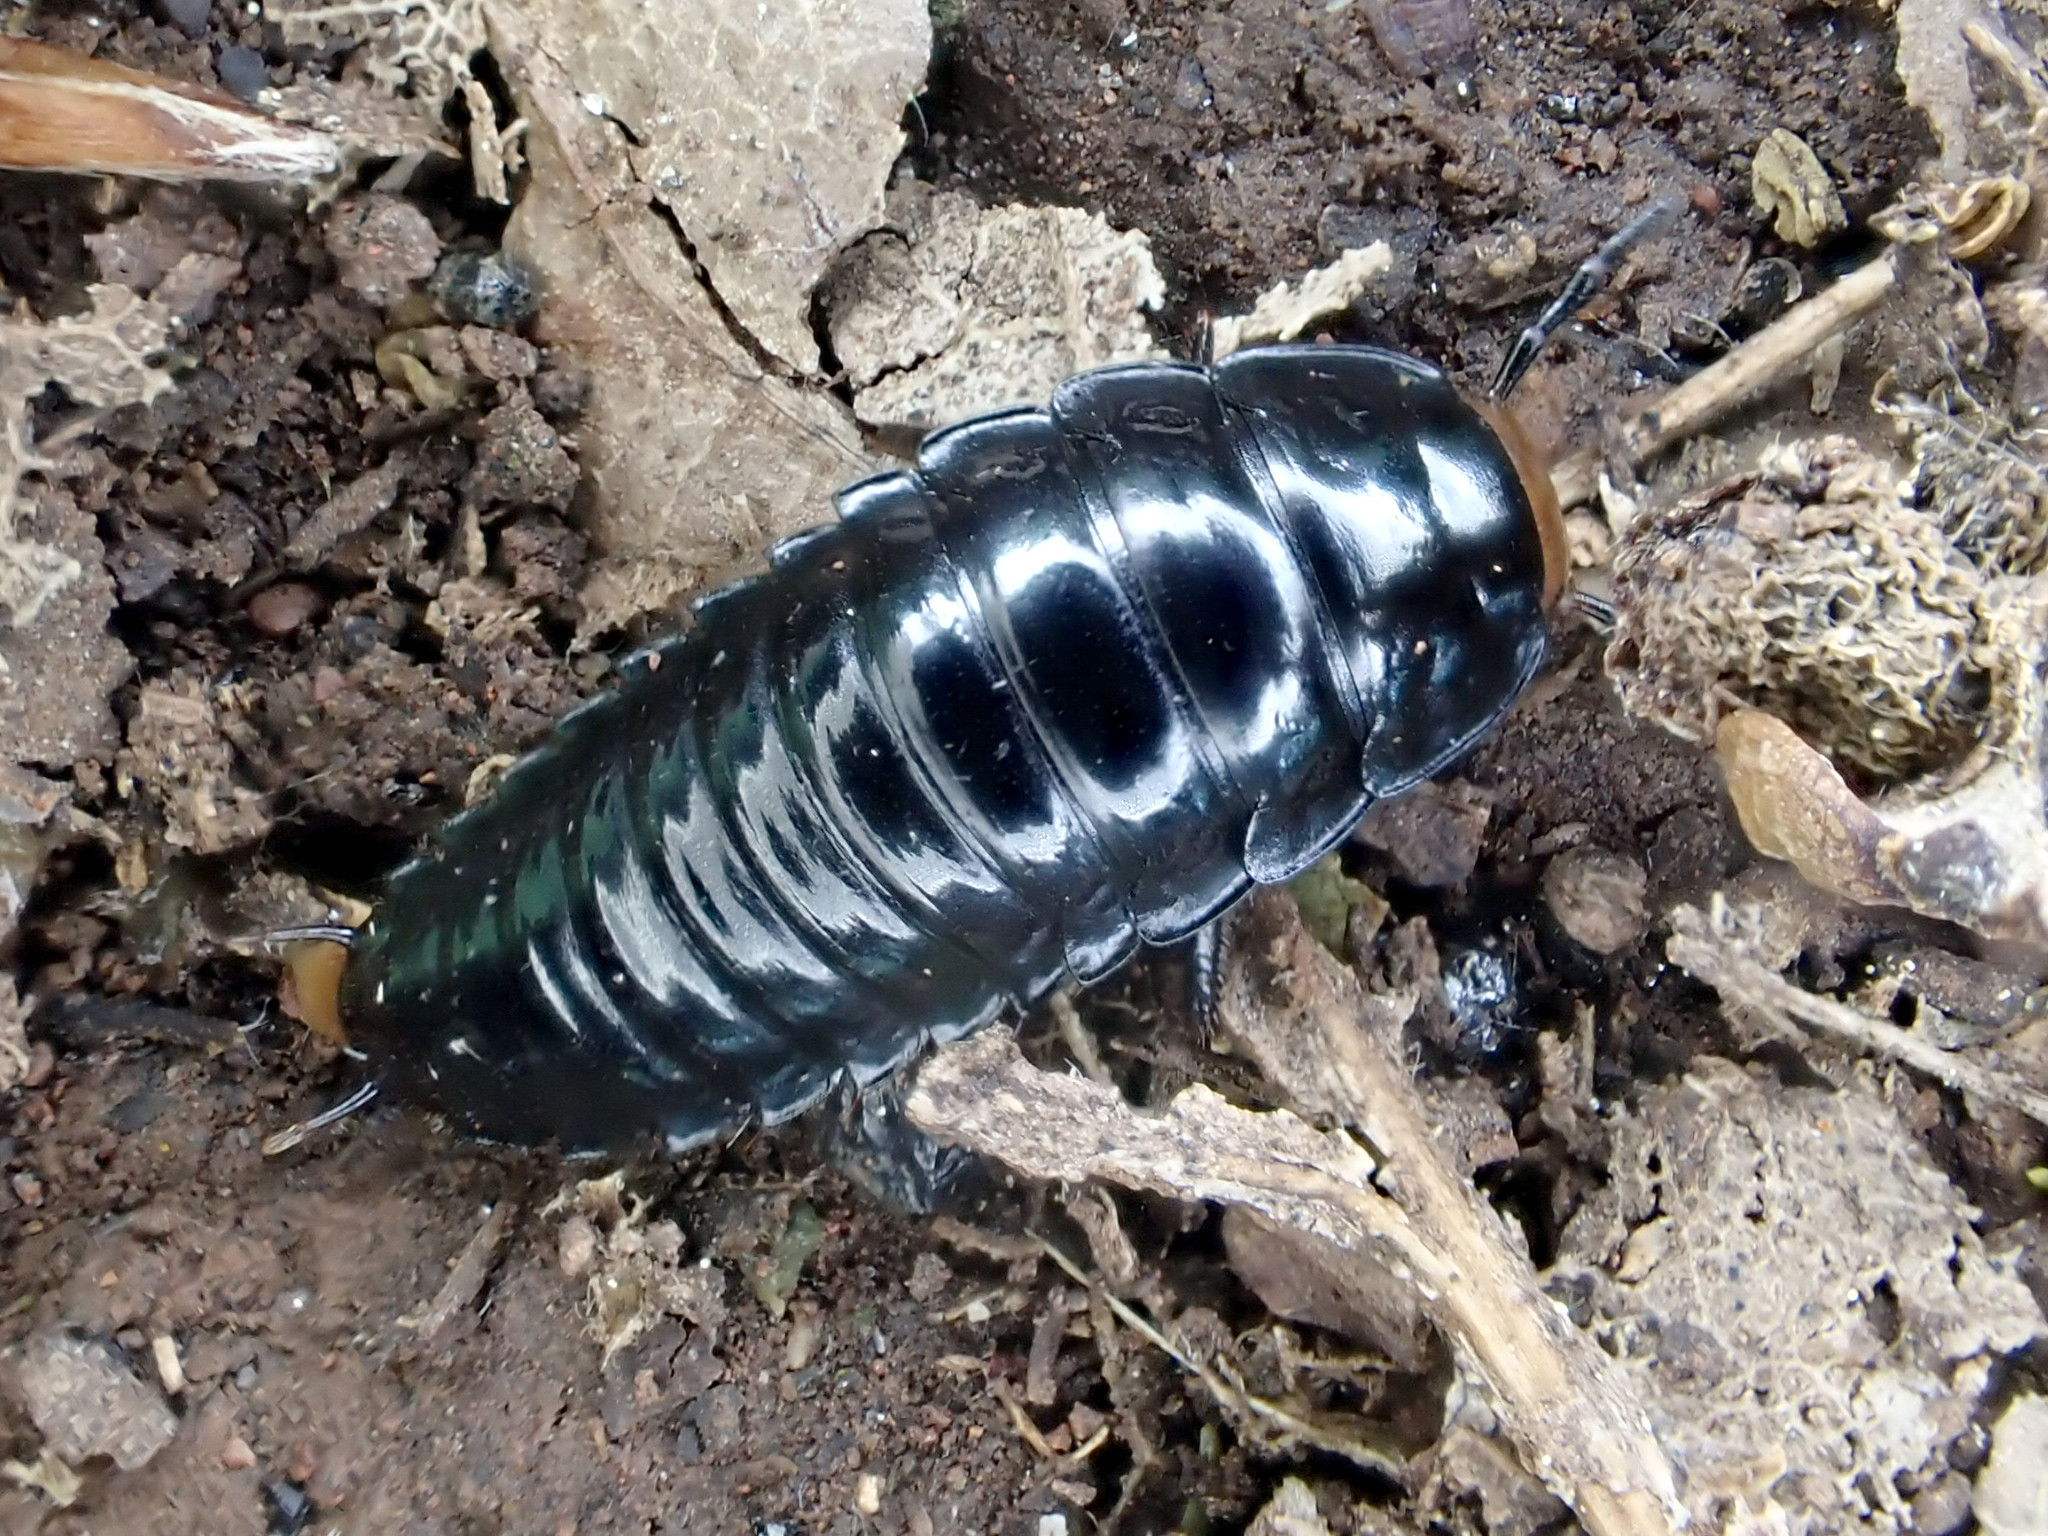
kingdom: Animalia
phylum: Arthropoda
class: Insecta
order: Coleoptera
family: Staphylinidae
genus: Dendroxena
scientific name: Dendroxena quadrimaculata
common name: Carrion beetle
